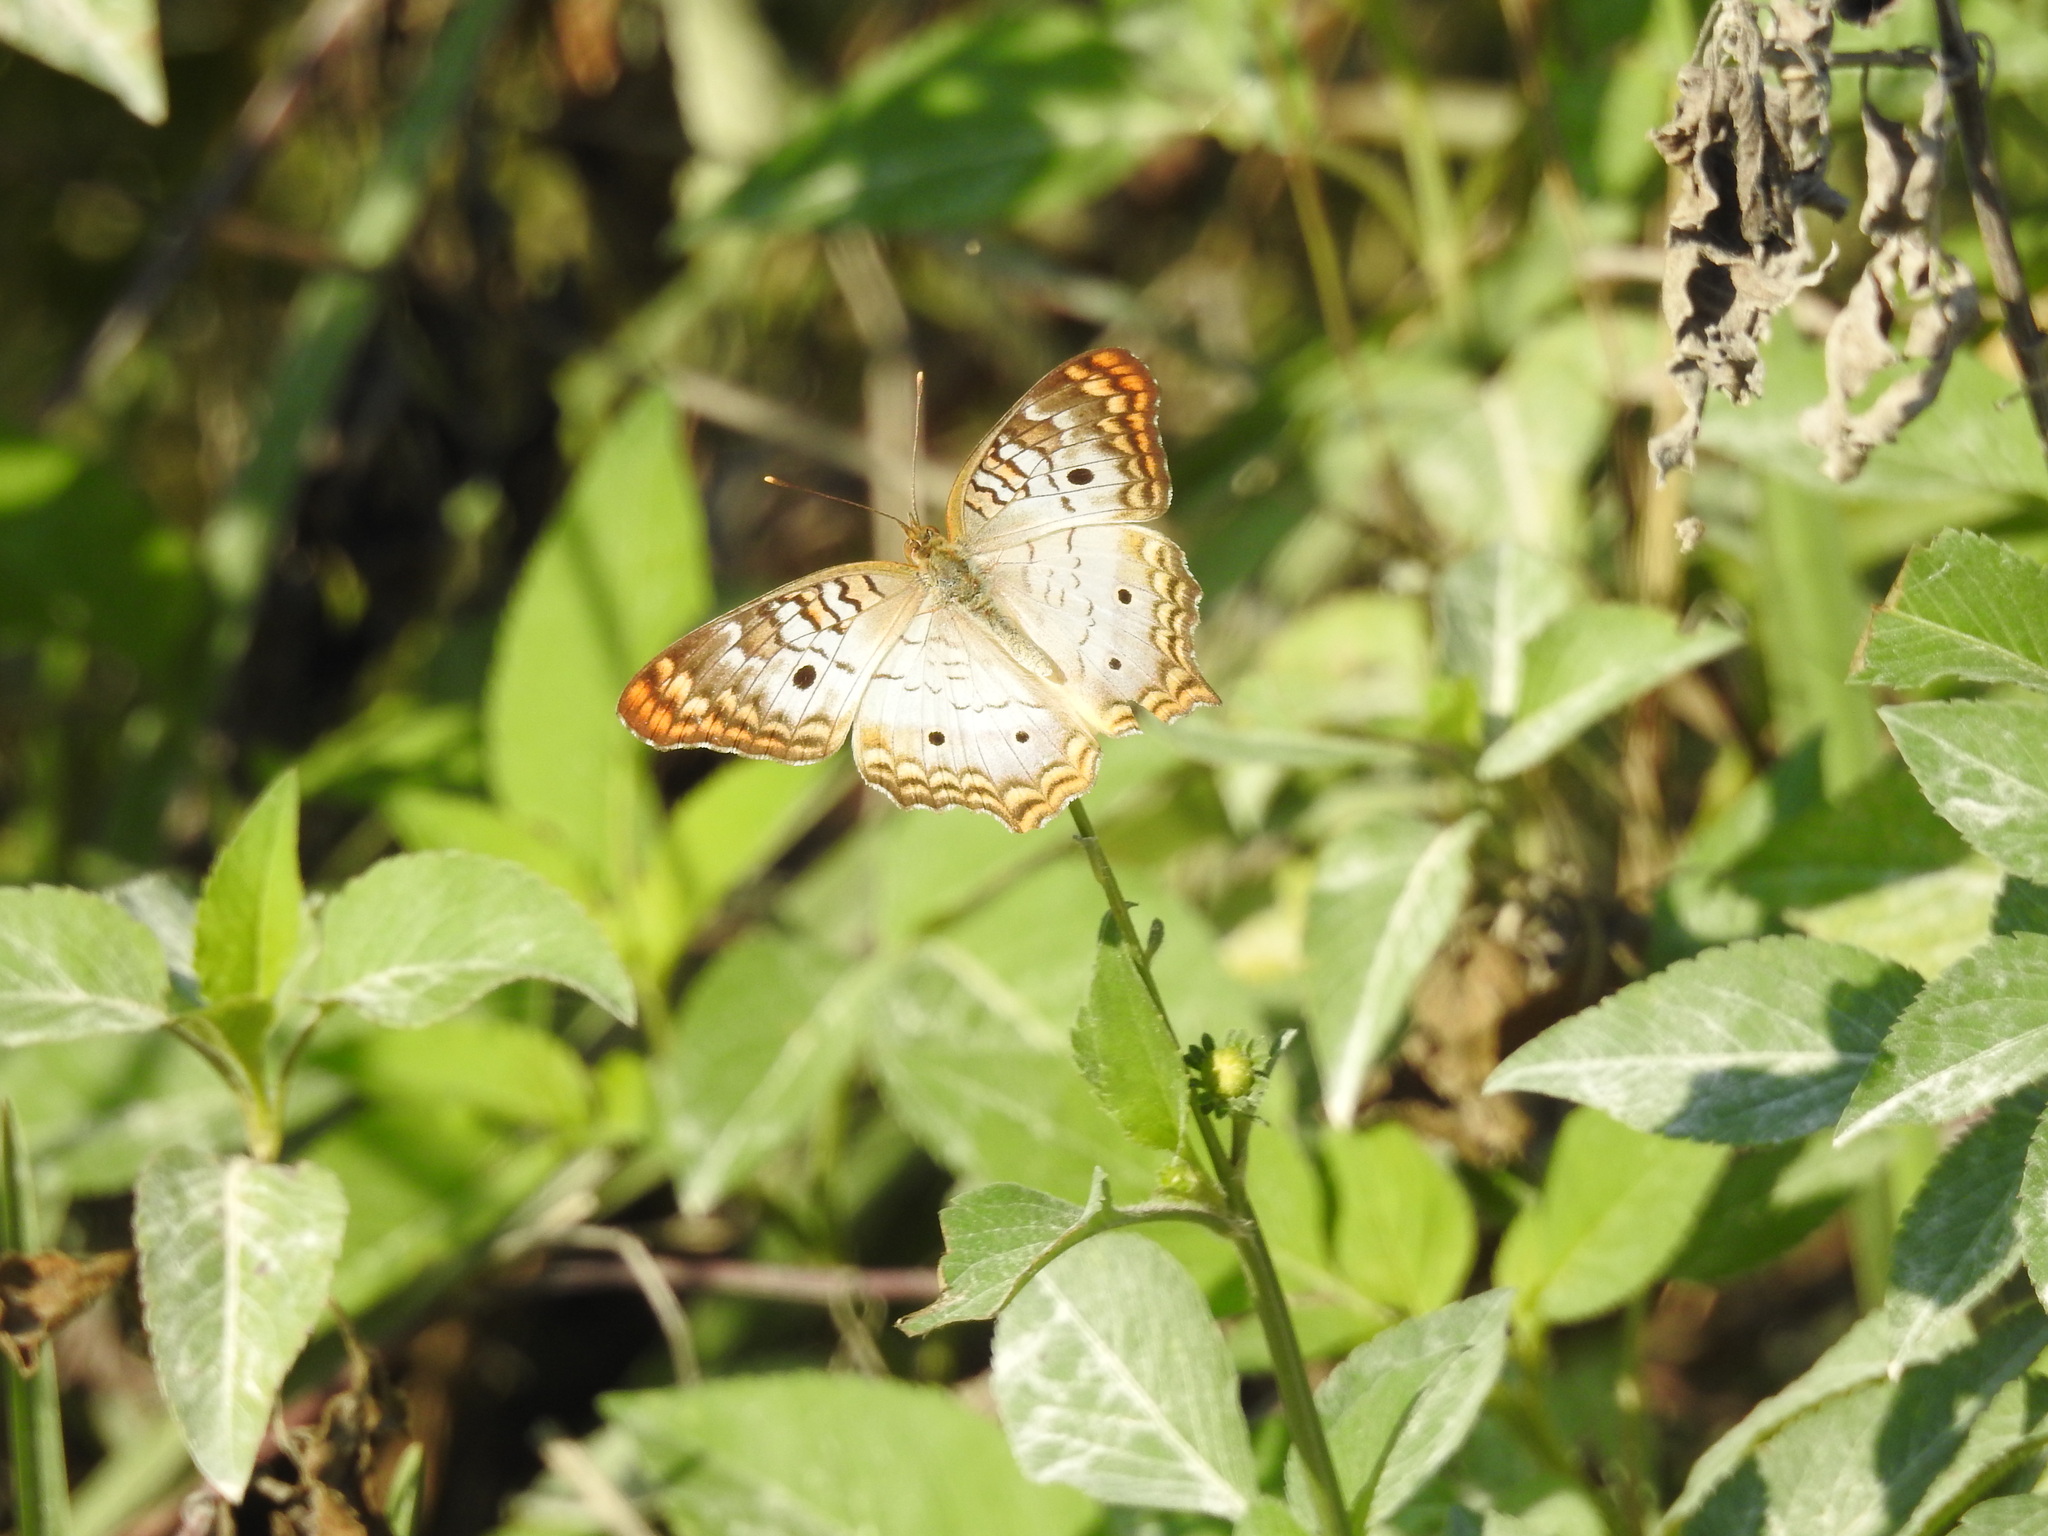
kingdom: Animalia
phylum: Arthropoda
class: Insecta
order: Lepidoptera
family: Nymphalidae
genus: Anartia
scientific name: Anartia jatrophae
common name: White peacock
